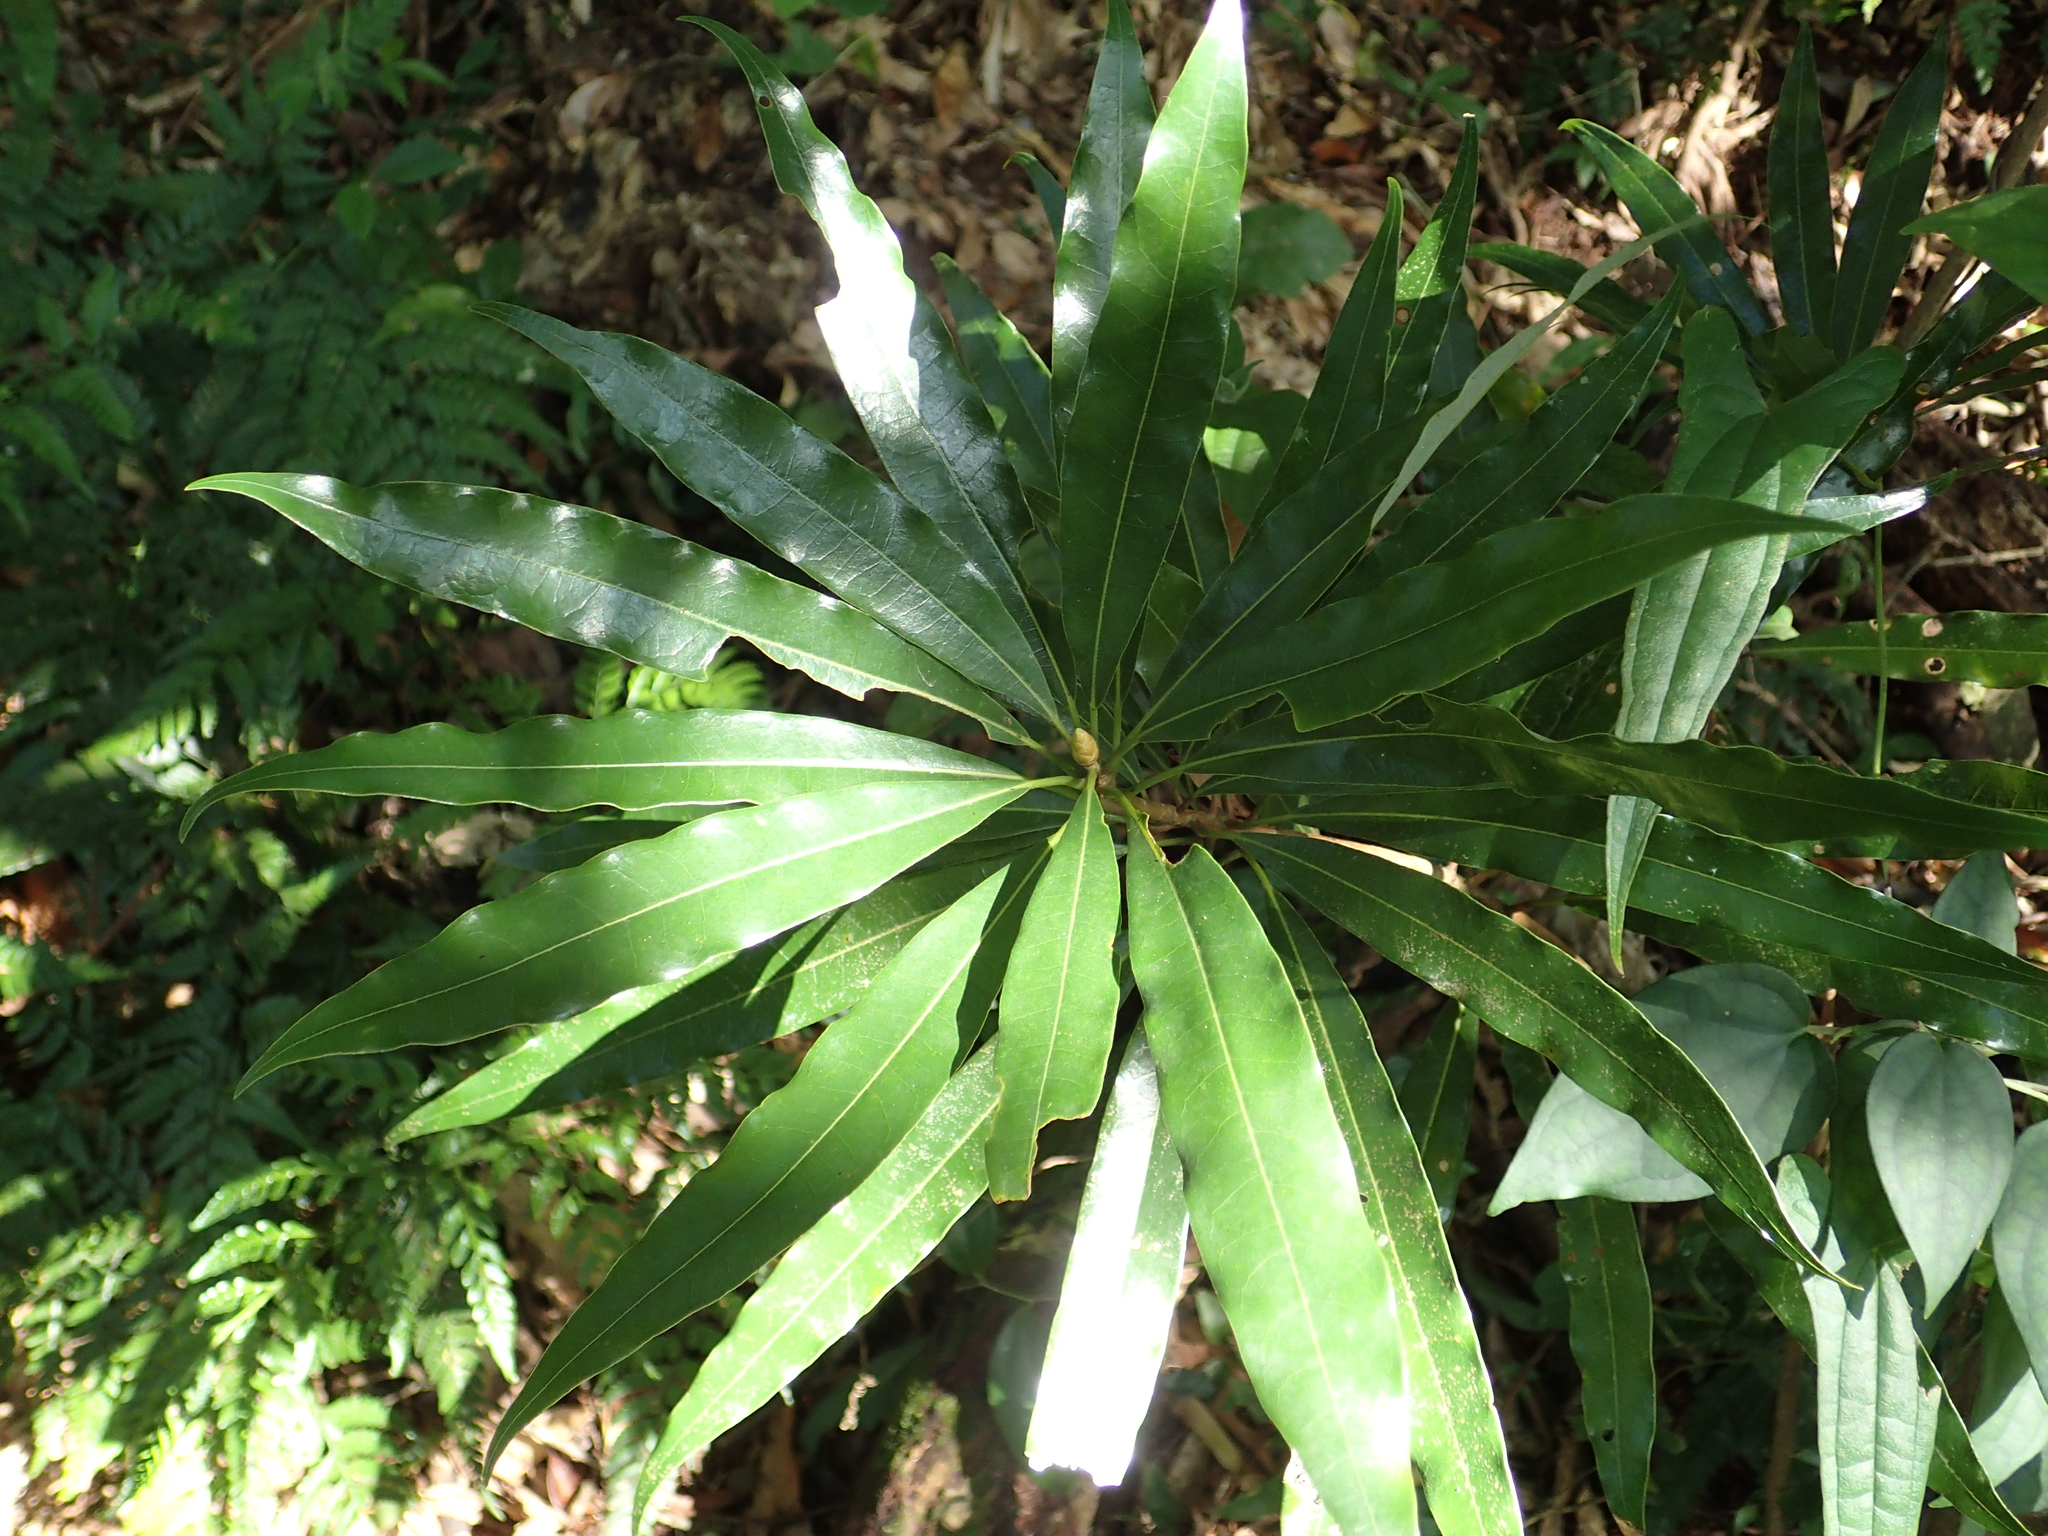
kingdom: Plantae
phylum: Tracheophyta
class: Magnoliopsida
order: Laurales
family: Lauraceae
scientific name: Lauraceae
